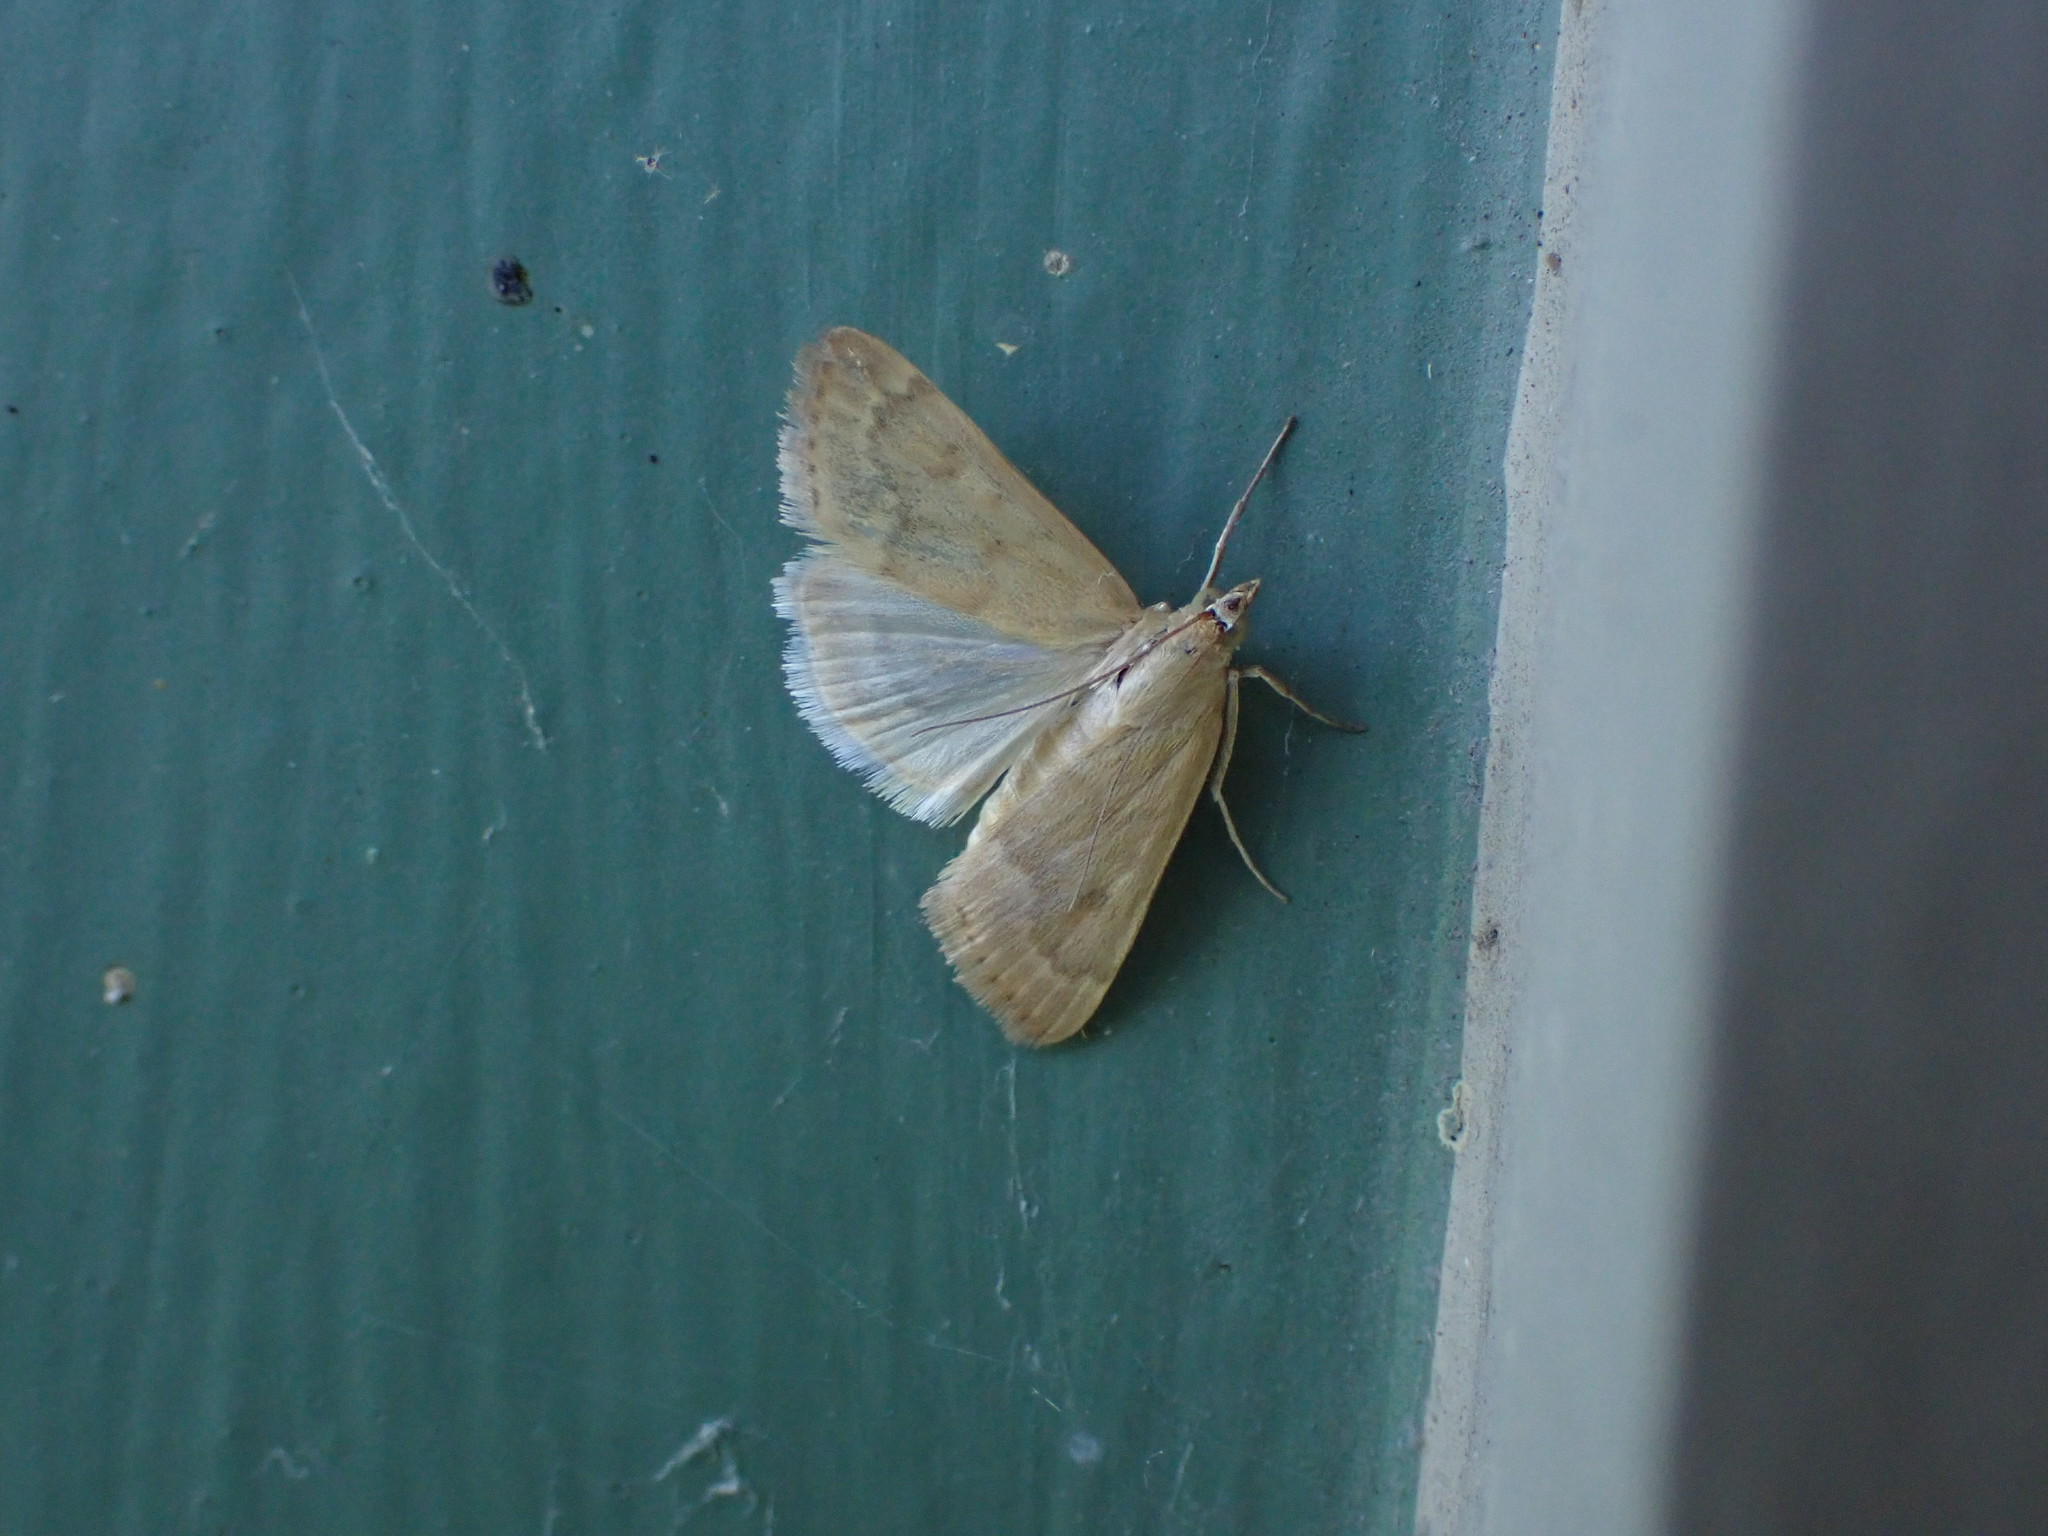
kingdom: Animalia
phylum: Arthropoda
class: Insecta
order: Lepidoptera
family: Crambidae
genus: Achyra
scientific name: Achyra rantalis
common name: Garden webworm
